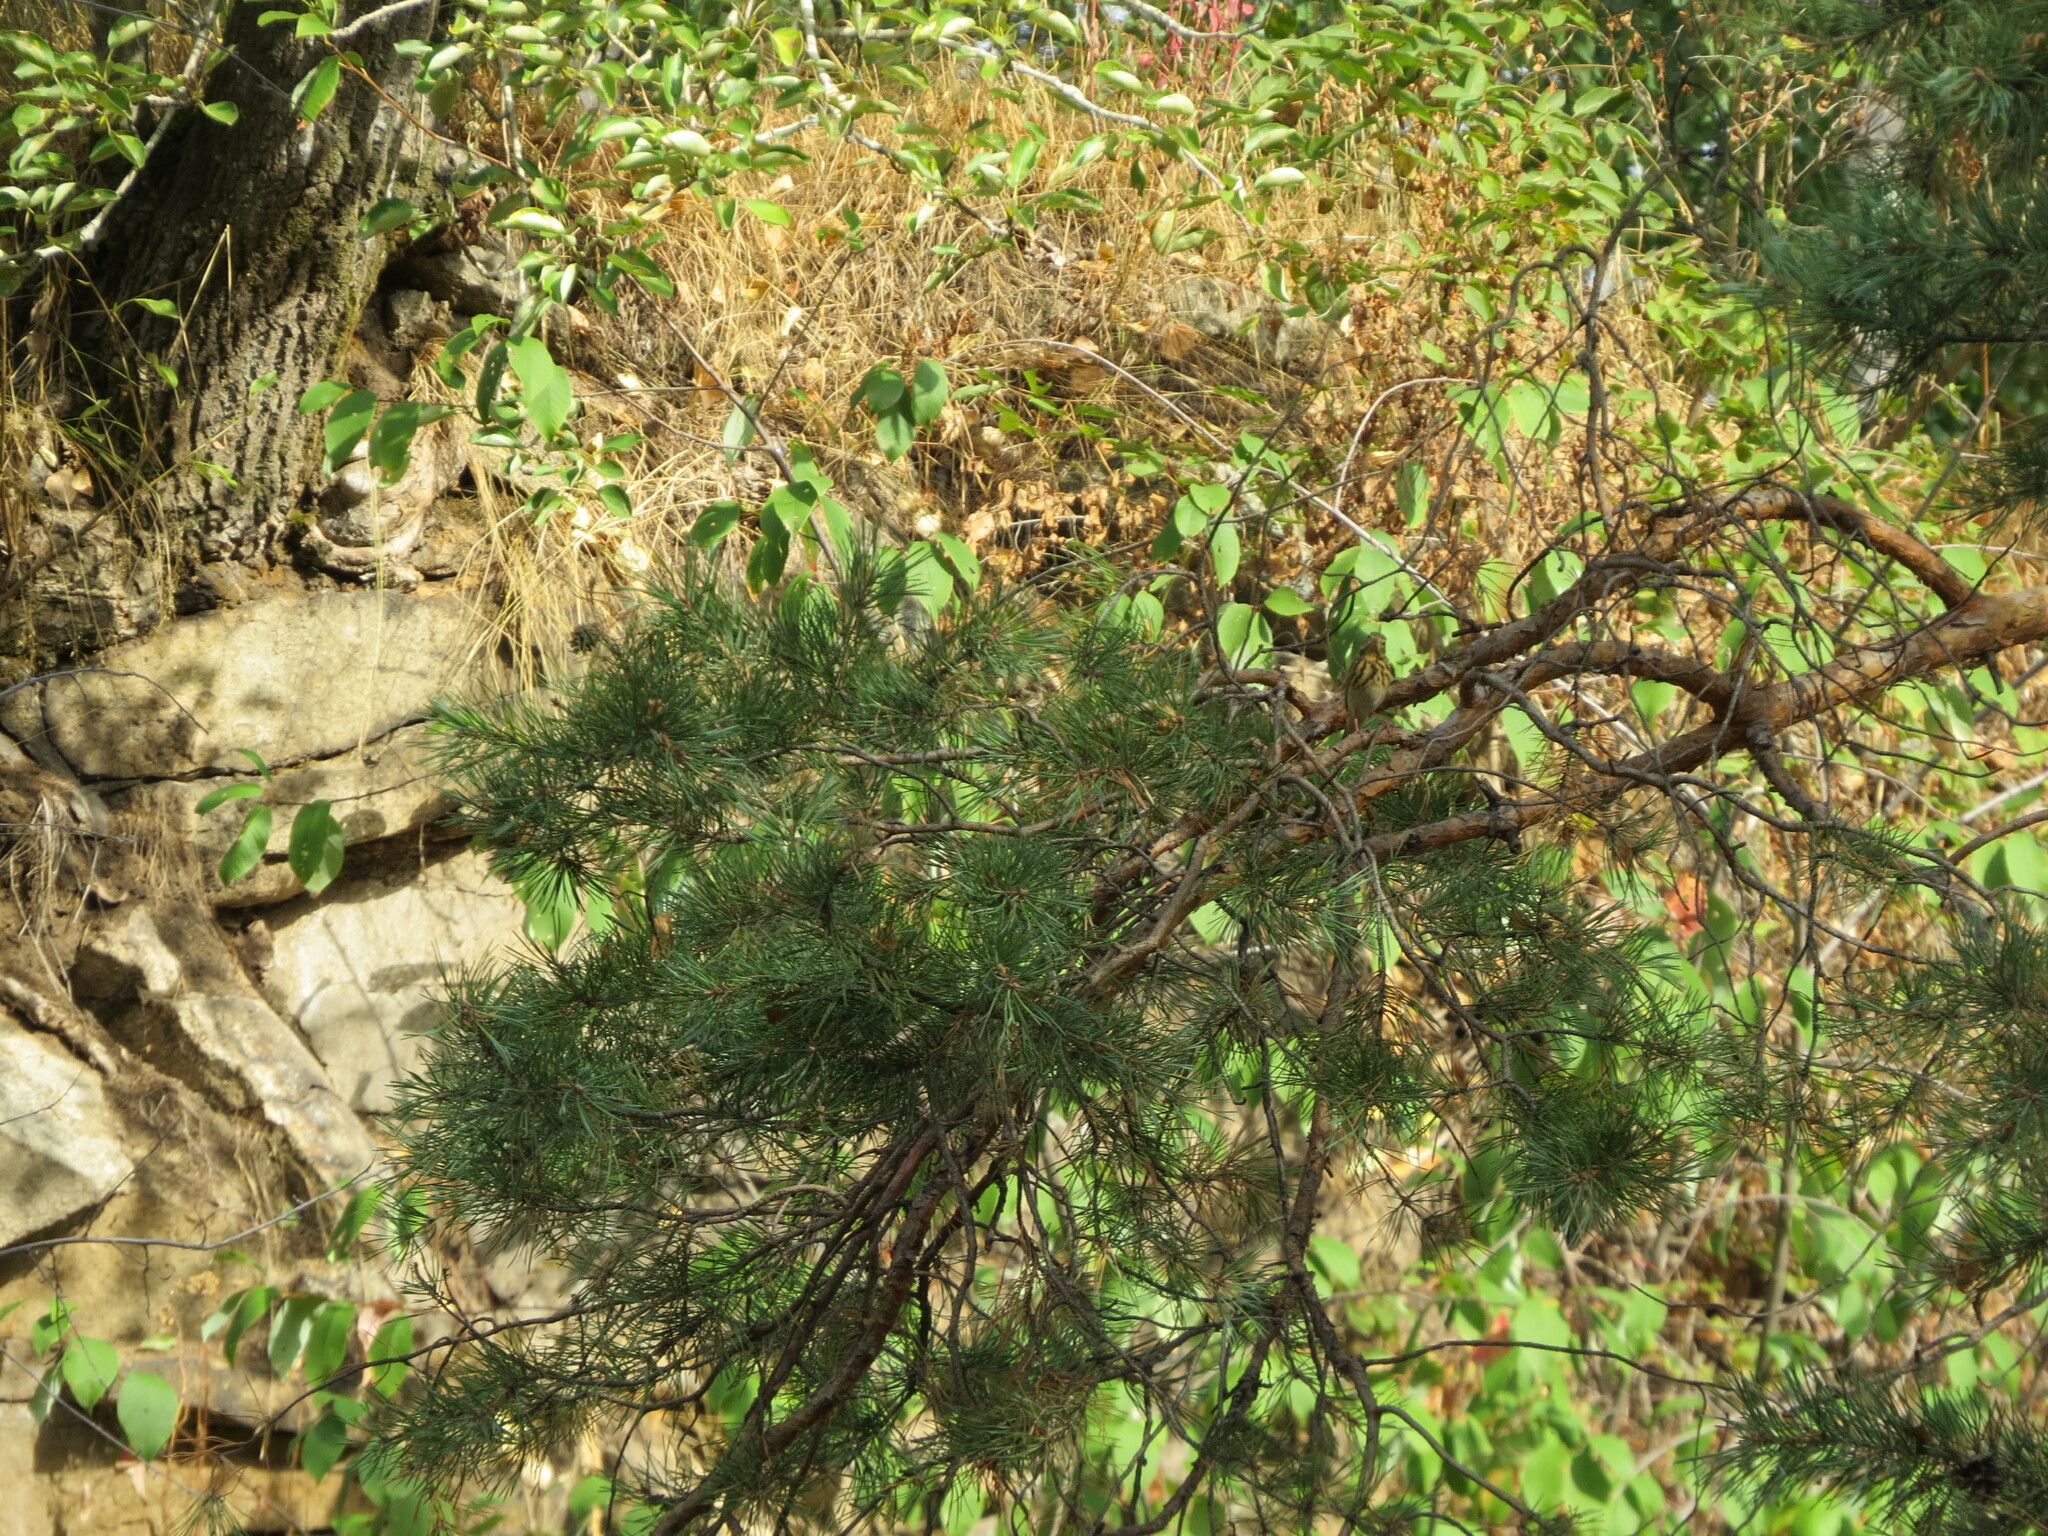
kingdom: Animalia
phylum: Chordata
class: Aves
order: Passeriformes
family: Motacillidae
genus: Anthus
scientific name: Anthus trivialis
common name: Tree pipit
